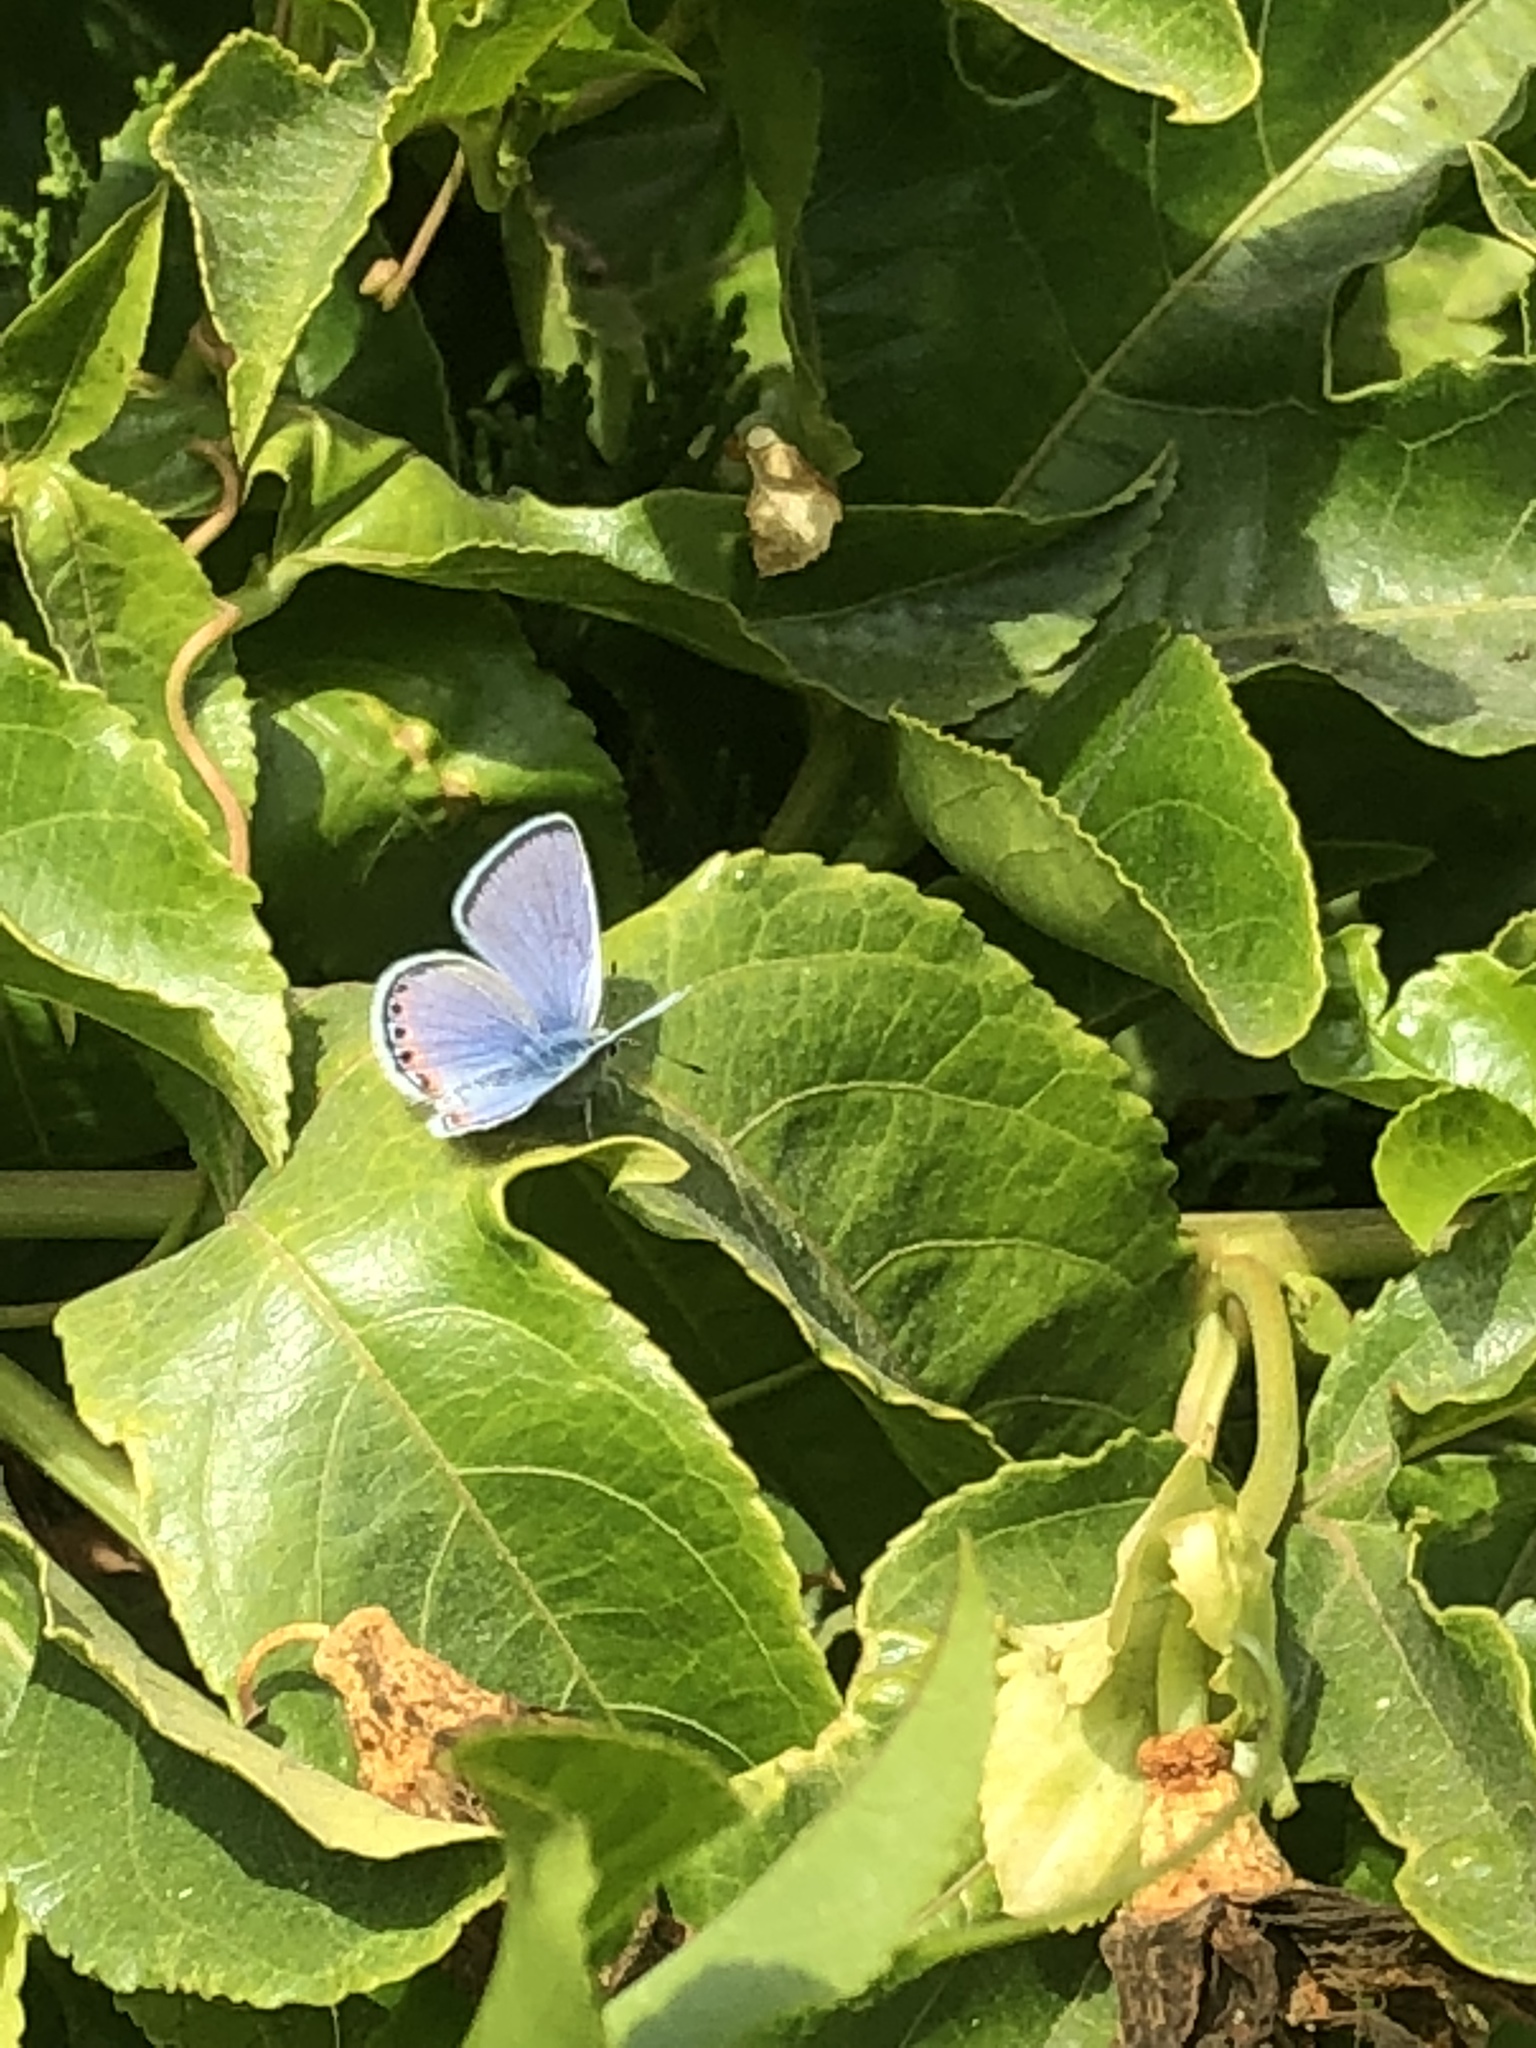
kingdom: Animalia
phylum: Arthropoda
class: Insecta
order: Lepidoptera
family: Lycaenidae
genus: Icaricia
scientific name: Icaricia acmon
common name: Acmon blue
